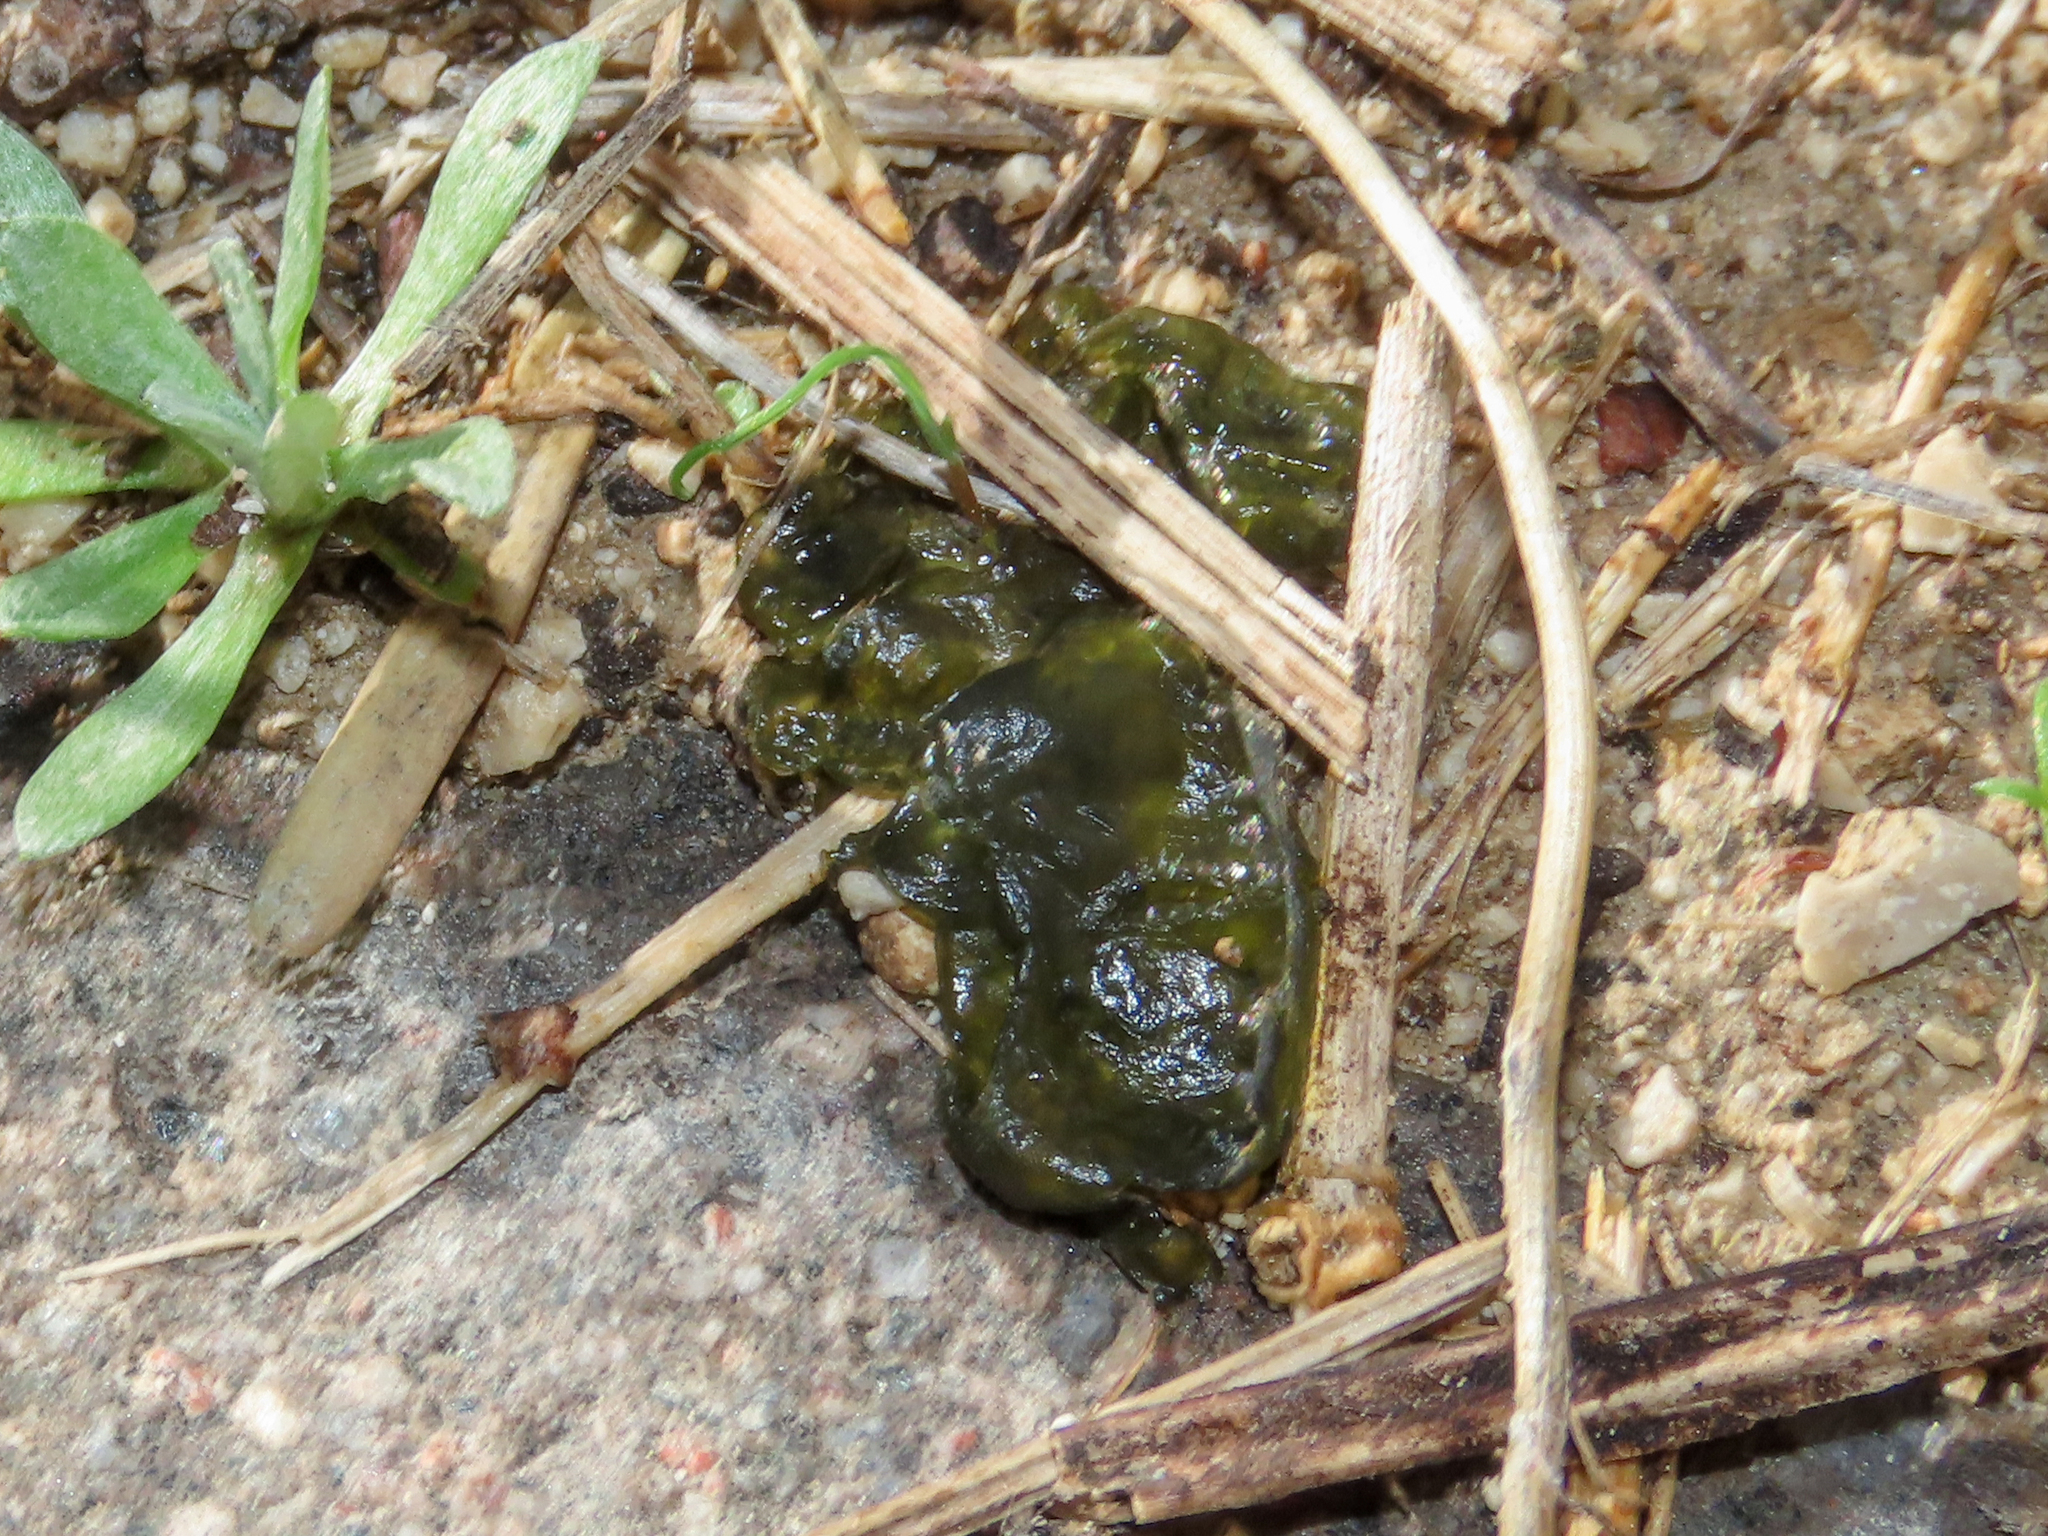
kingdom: Bacteria
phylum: Cyanobacteria
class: Cyanobacteriia
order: Cyanobacteriales
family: Nostocaceae
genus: Nostoc
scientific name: Nostoc commune
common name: Star jelly
